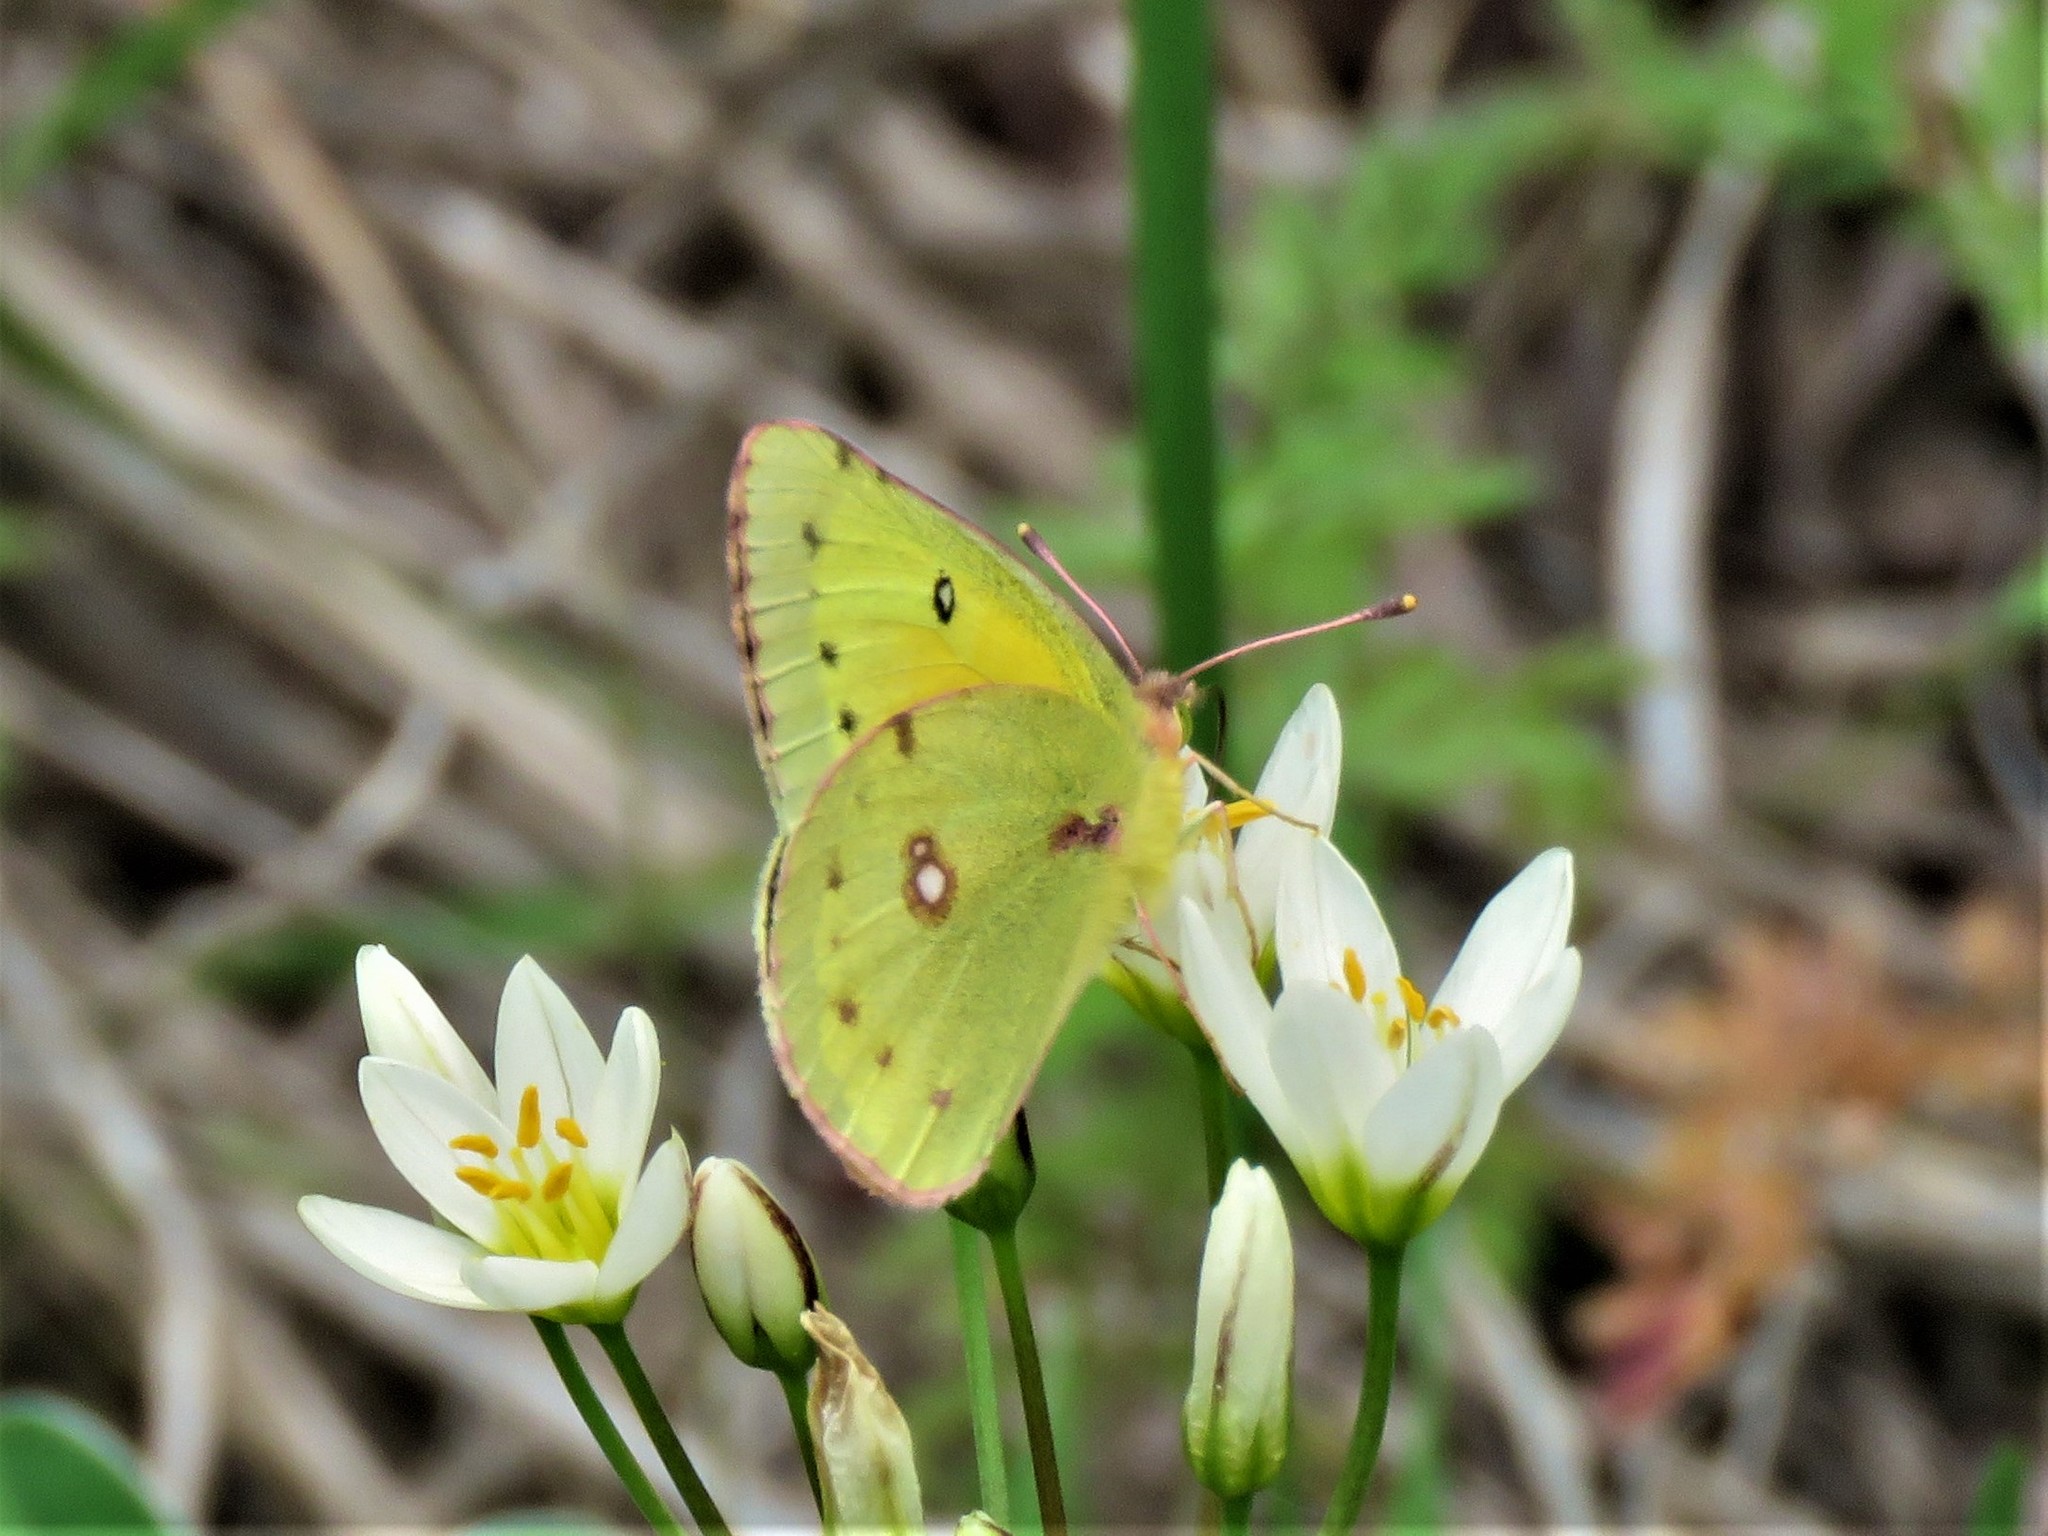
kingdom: Animalia
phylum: Arthropoda
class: Insecta
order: Lepidoptera
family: Pieridae
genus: Colias
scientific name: Colias eurytheme
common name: Alfalfa butterfly
